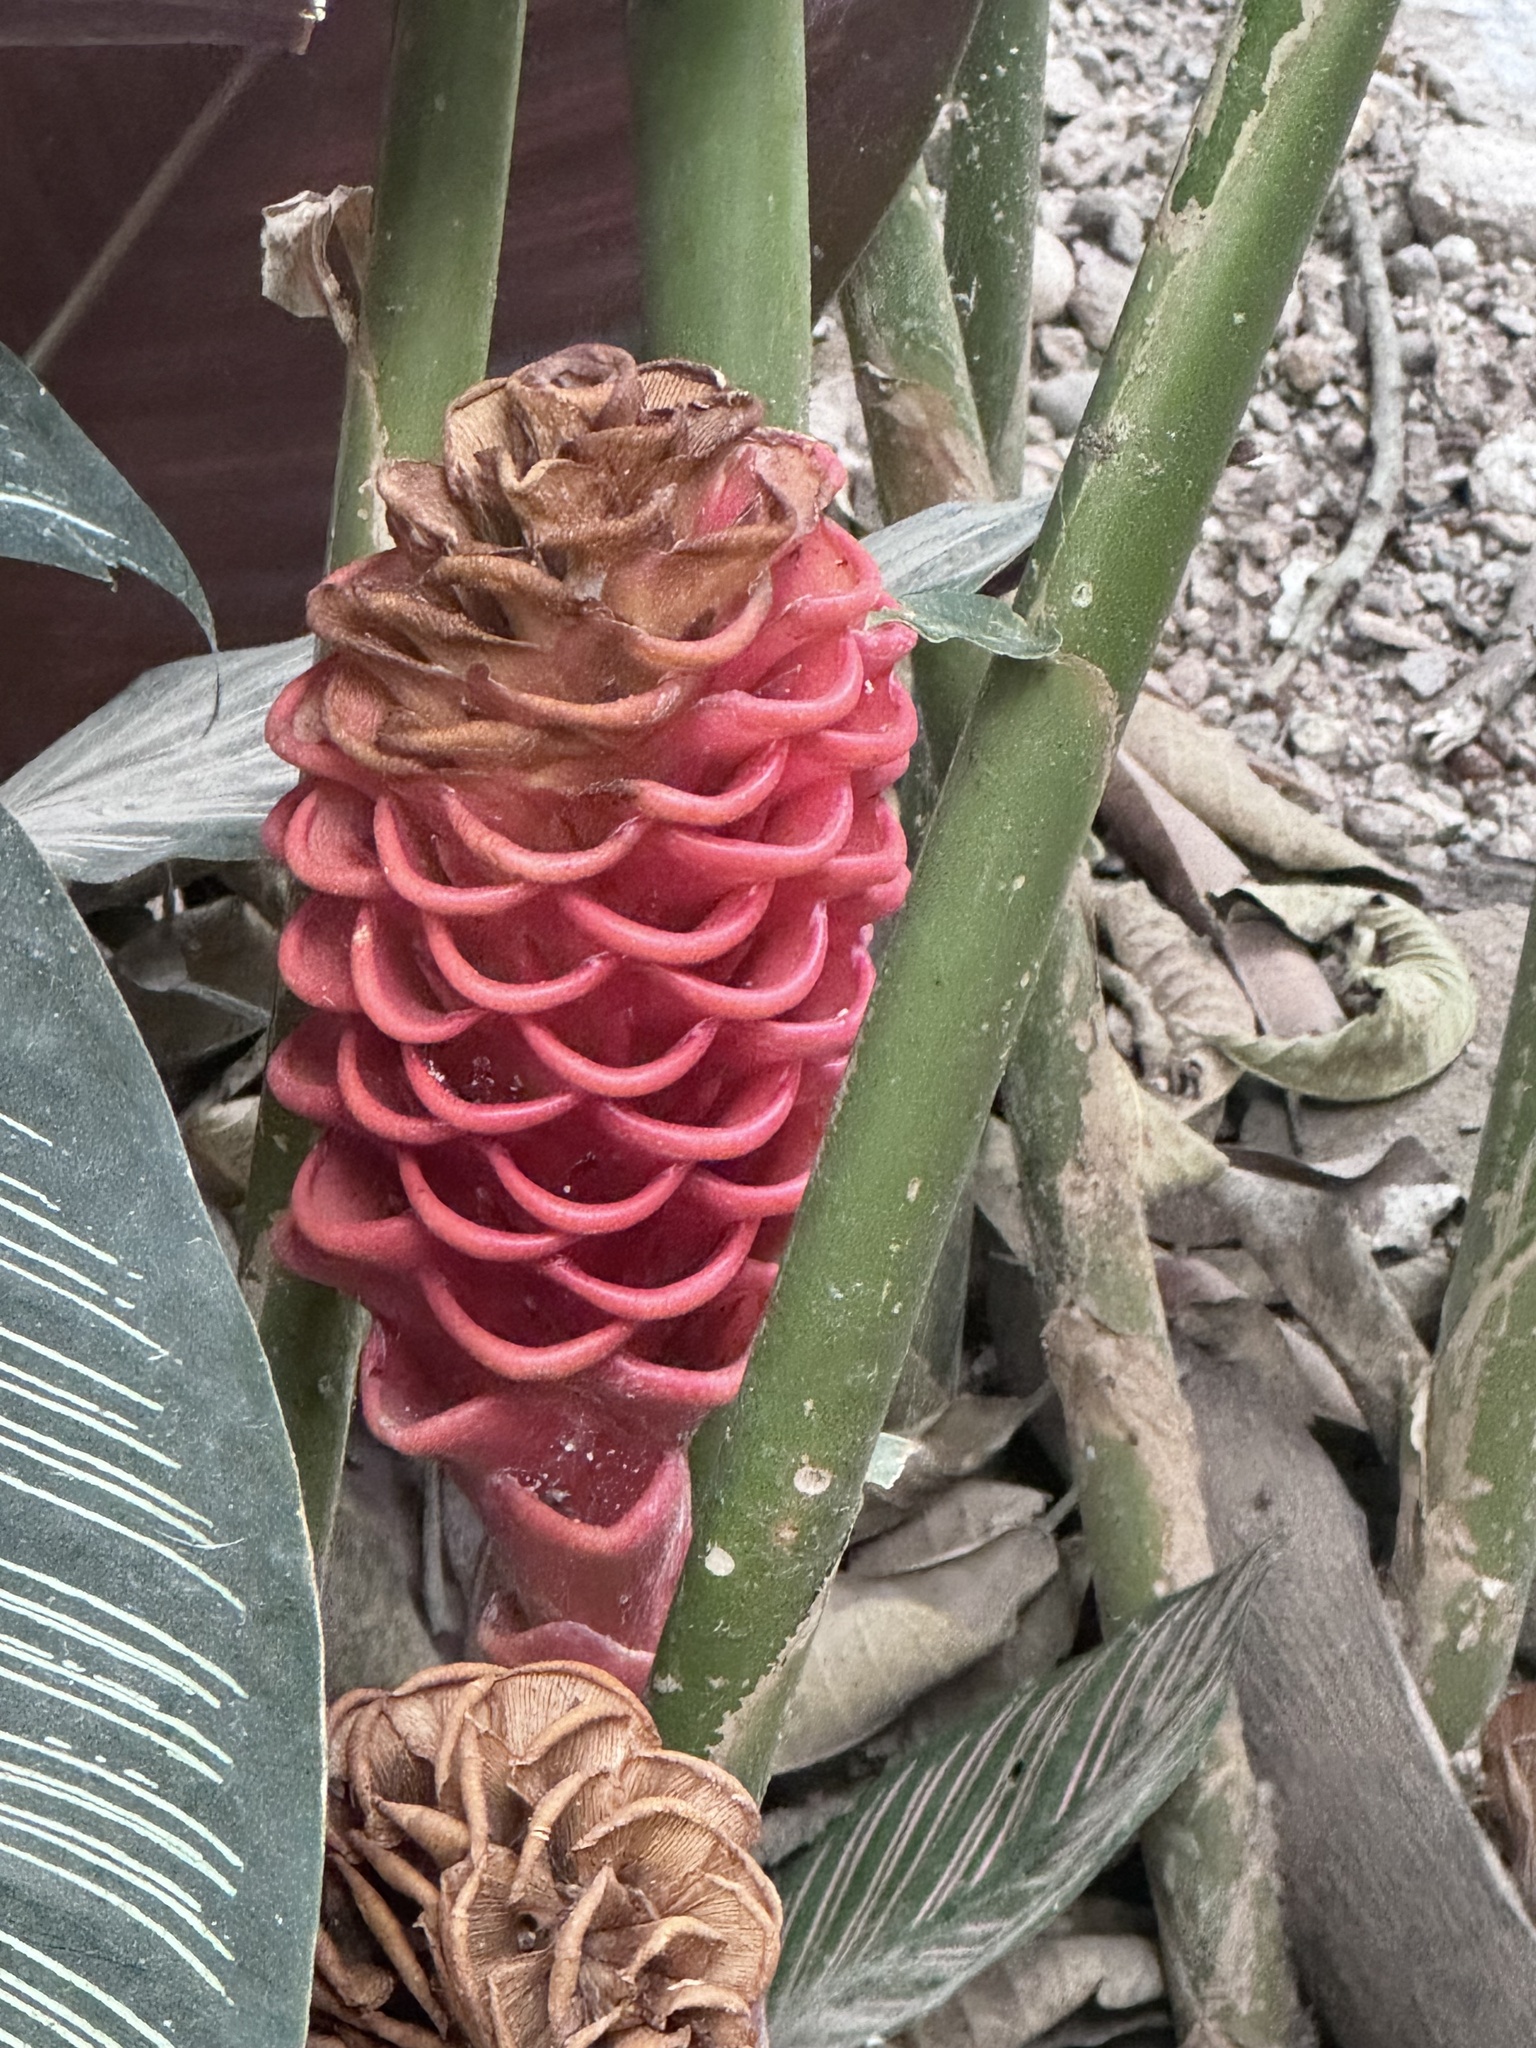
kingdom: Plantae
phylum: Tracheophyta
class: Liliopsida
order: Zingiberales
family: Zingiberaceae
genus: Zingiber
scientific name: Zingiber spectabile
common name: Beehive ginger
